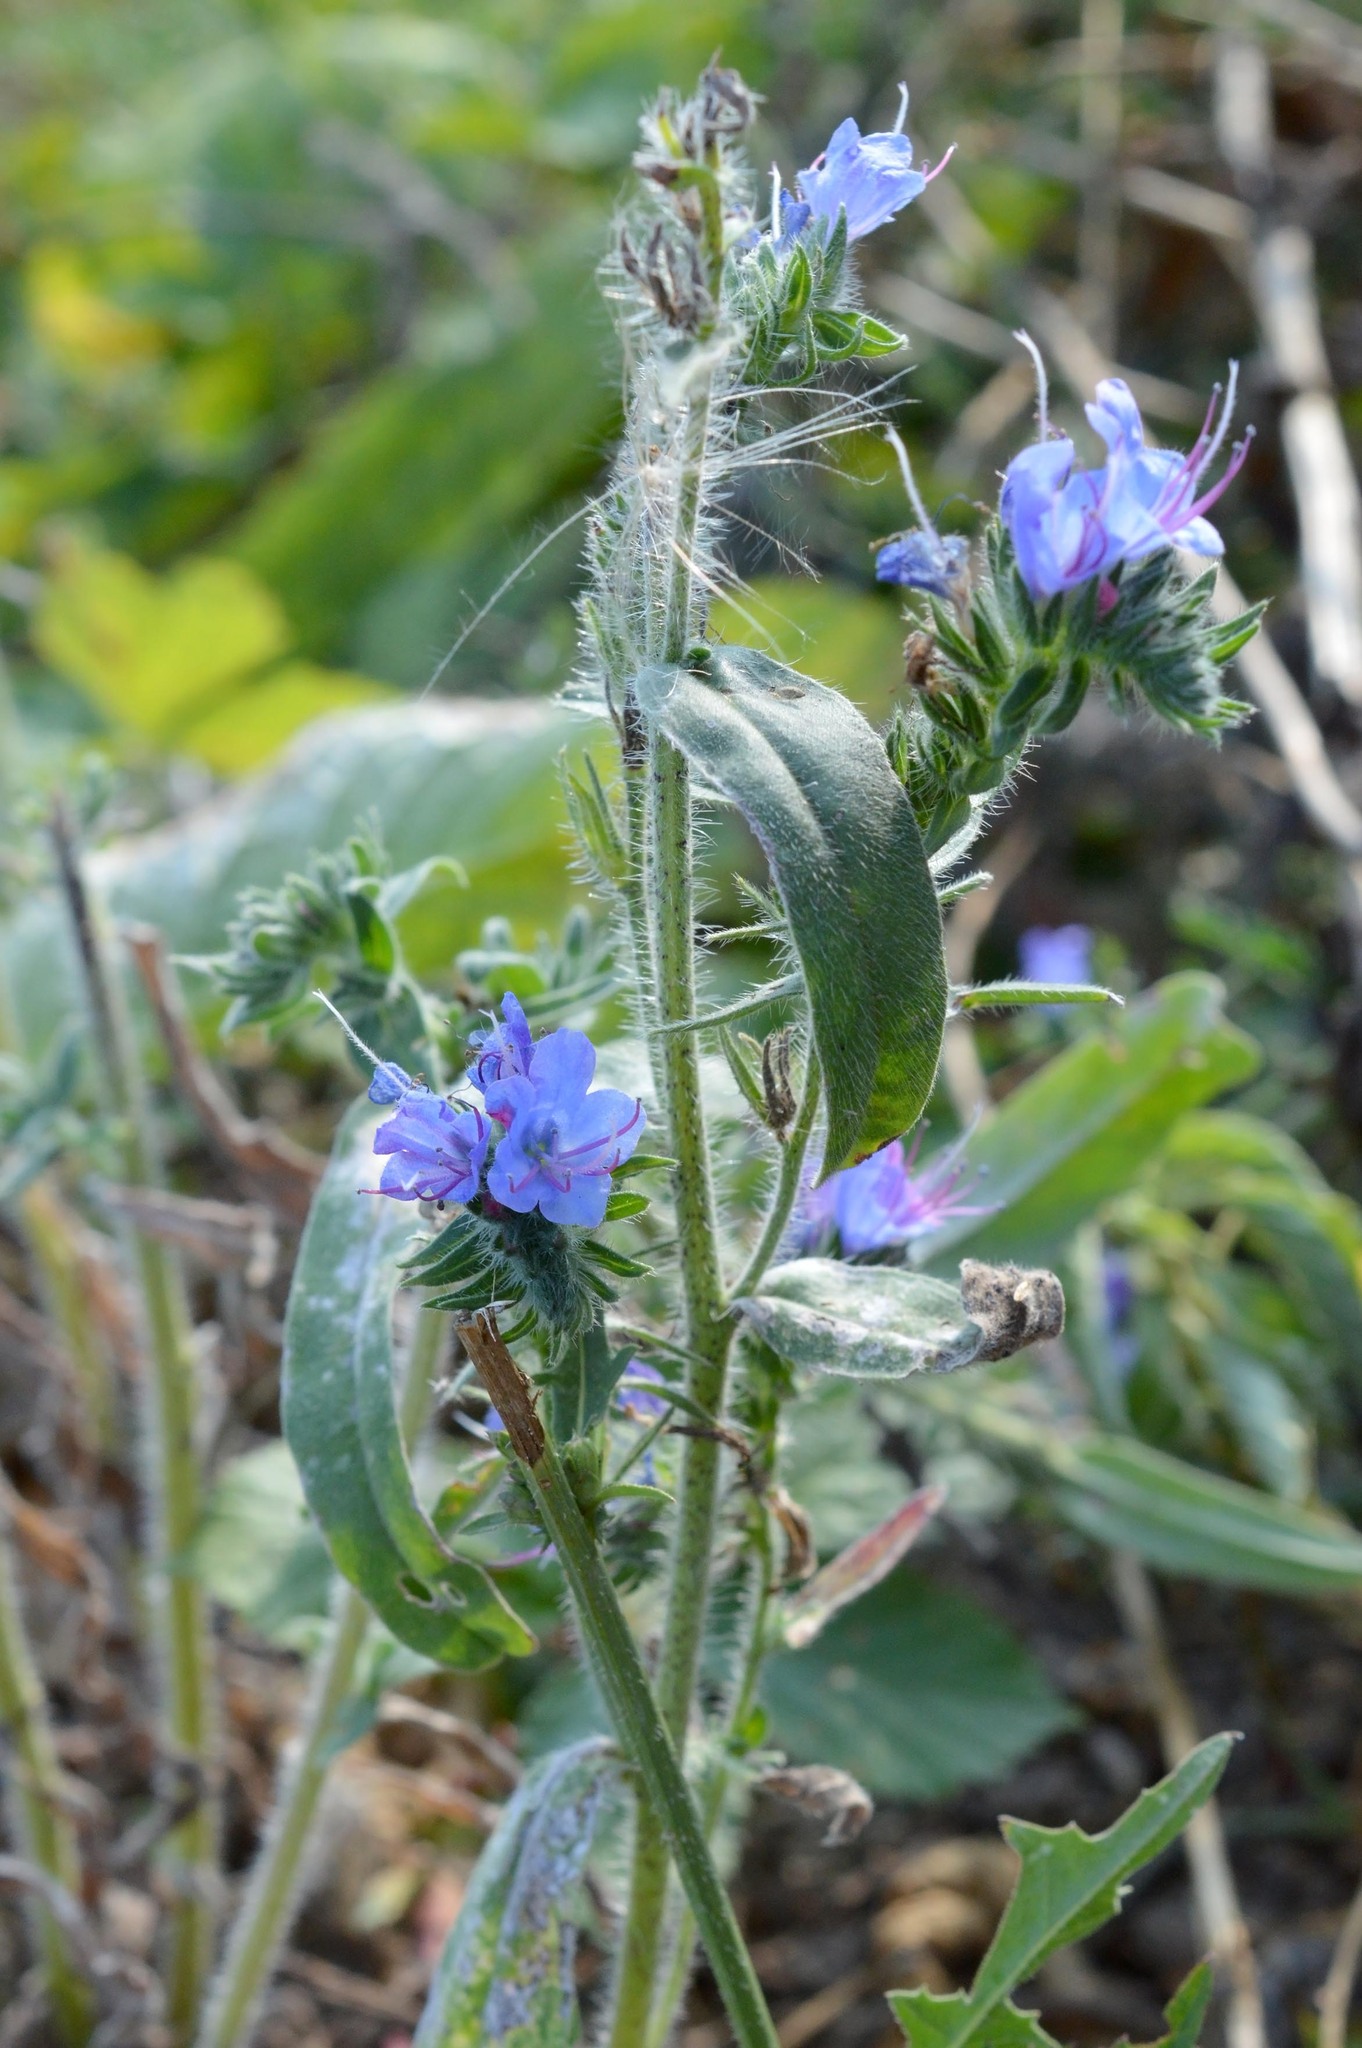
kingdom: Plantae
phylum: Tracheophyta
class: Magnoliopsida
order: Boraginales
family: Boraginaceae
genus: Echium
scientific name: Echium vulgare
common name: Common viper's bugloss
